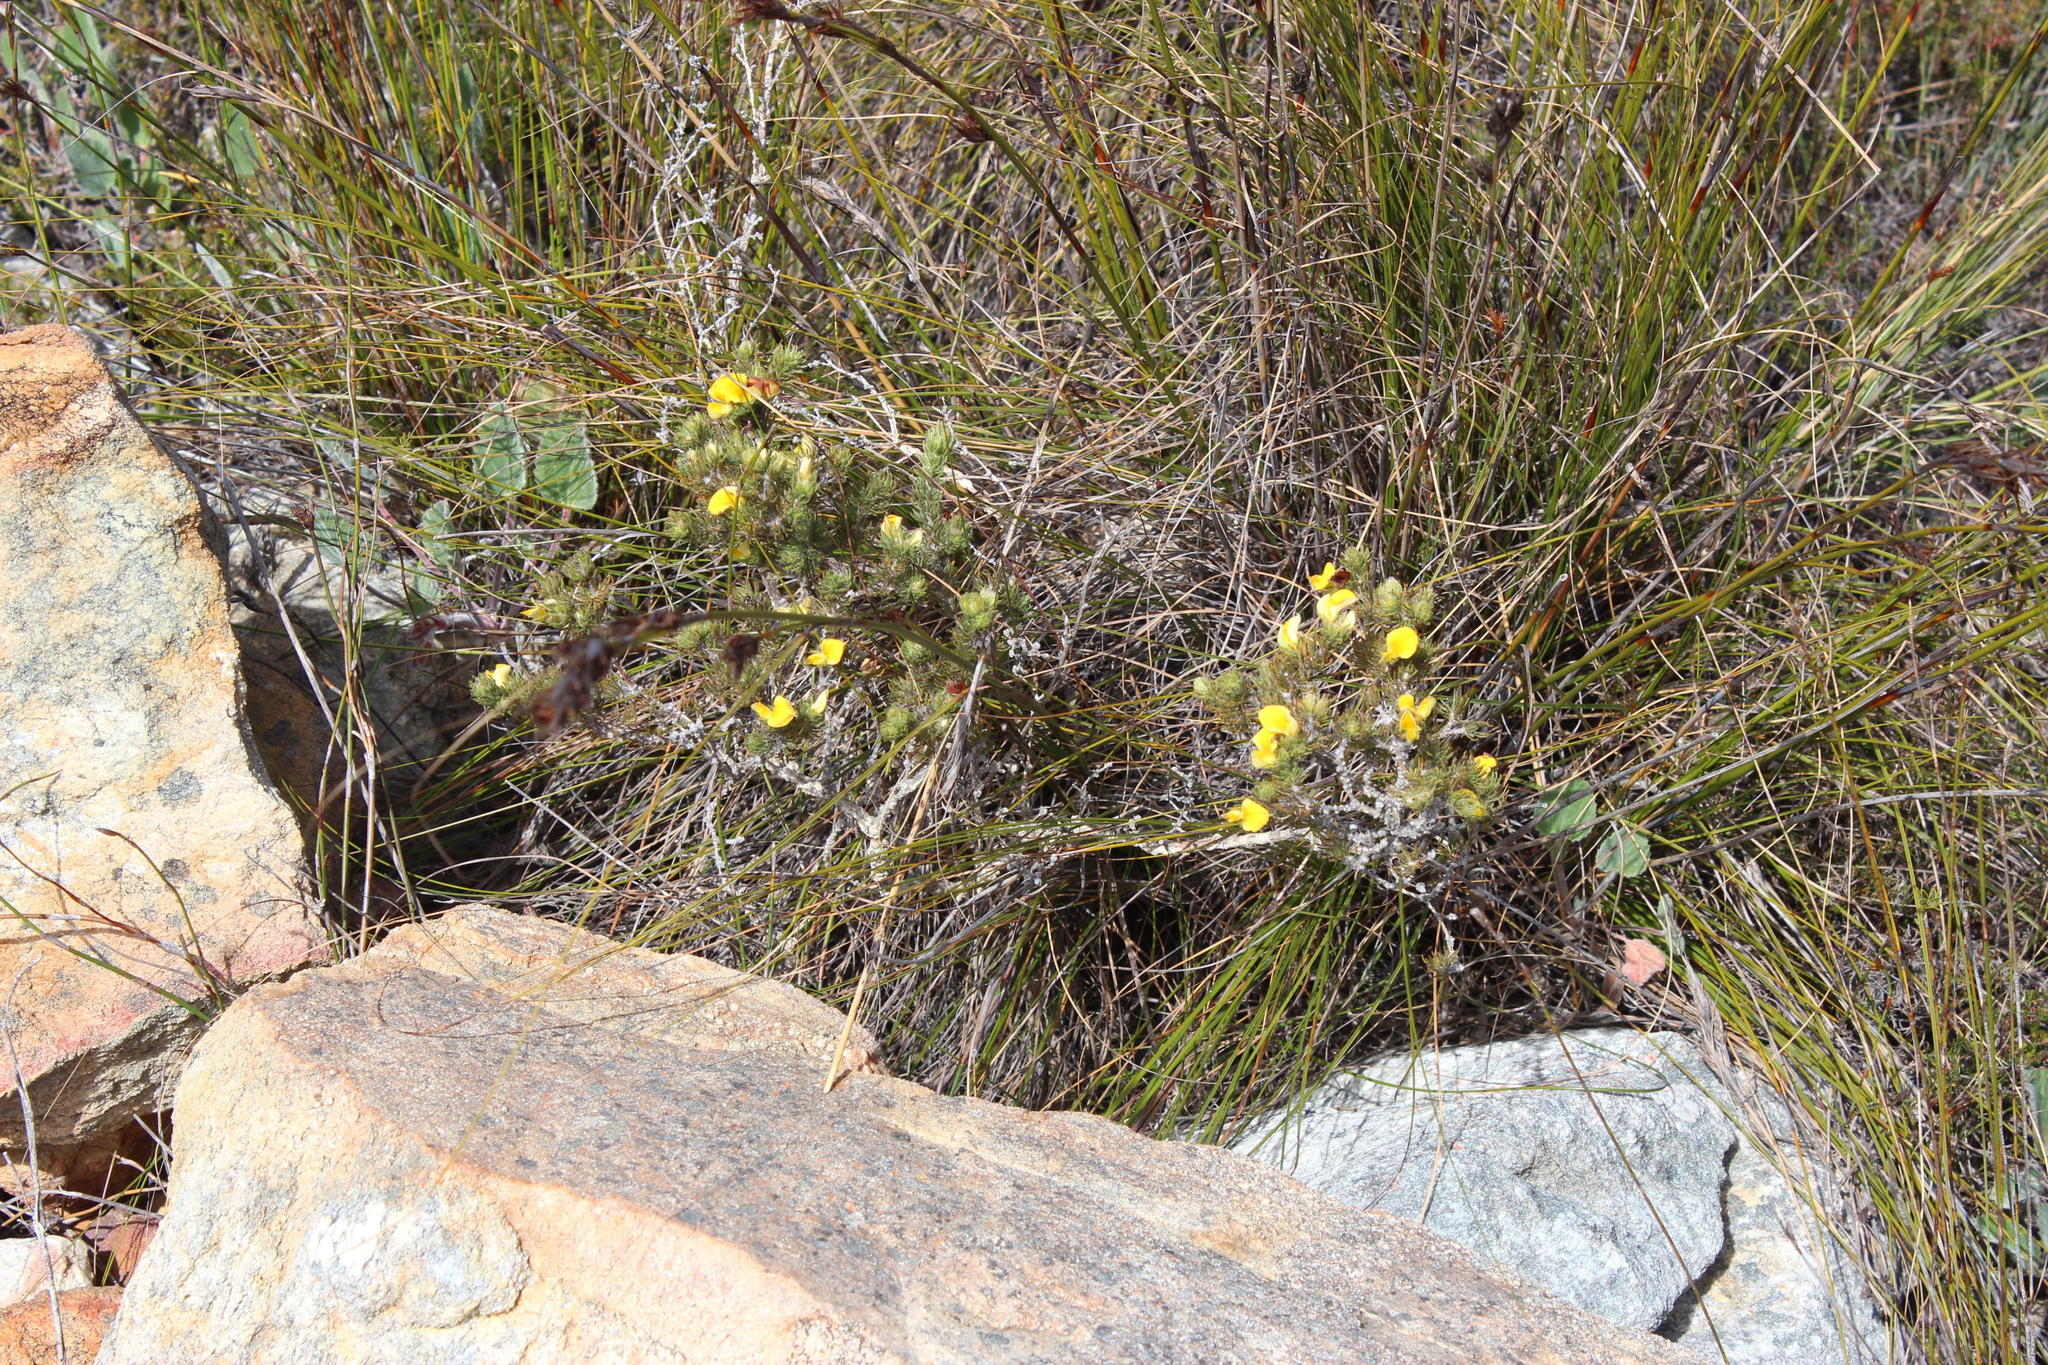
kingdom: Plantae
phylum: Tracheophyta
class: Magnoliopsida
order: Fabales
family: Fabaceae
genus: Aspalathus
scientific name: Aspalathus ciliaris
